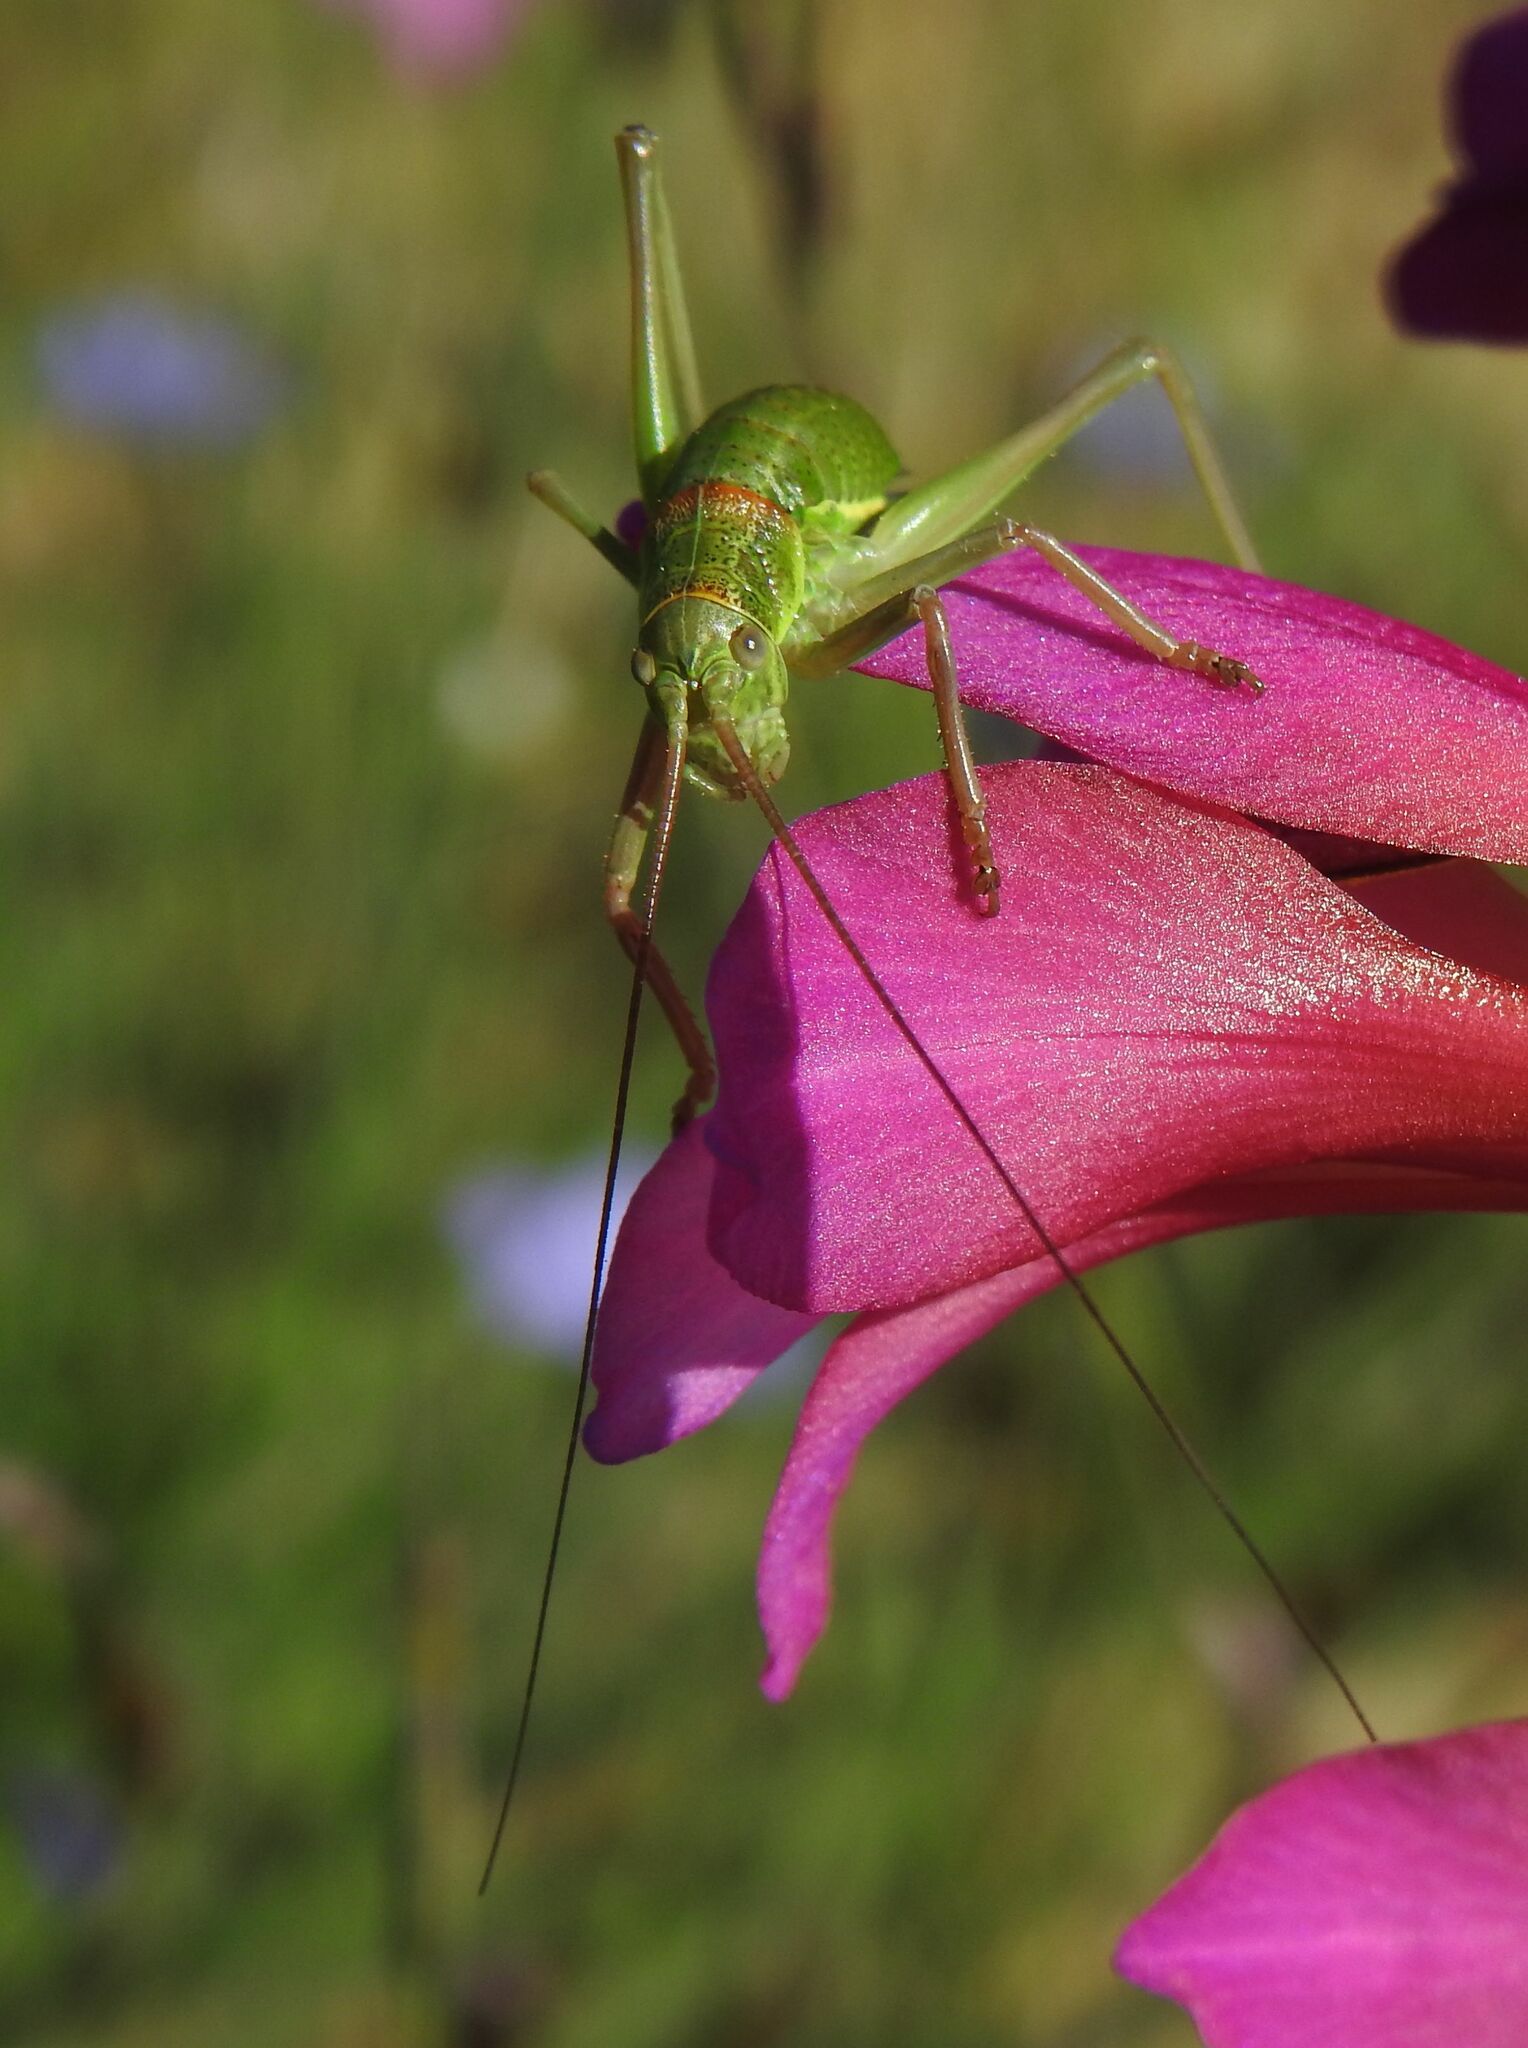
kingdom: Animalia
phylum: Arthropoda
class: Insecta
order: Orthoptera
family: Tettigoniidae
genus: Ephippiger
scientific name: Ephippiger diurnus
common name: Western saddle bush-cricket
